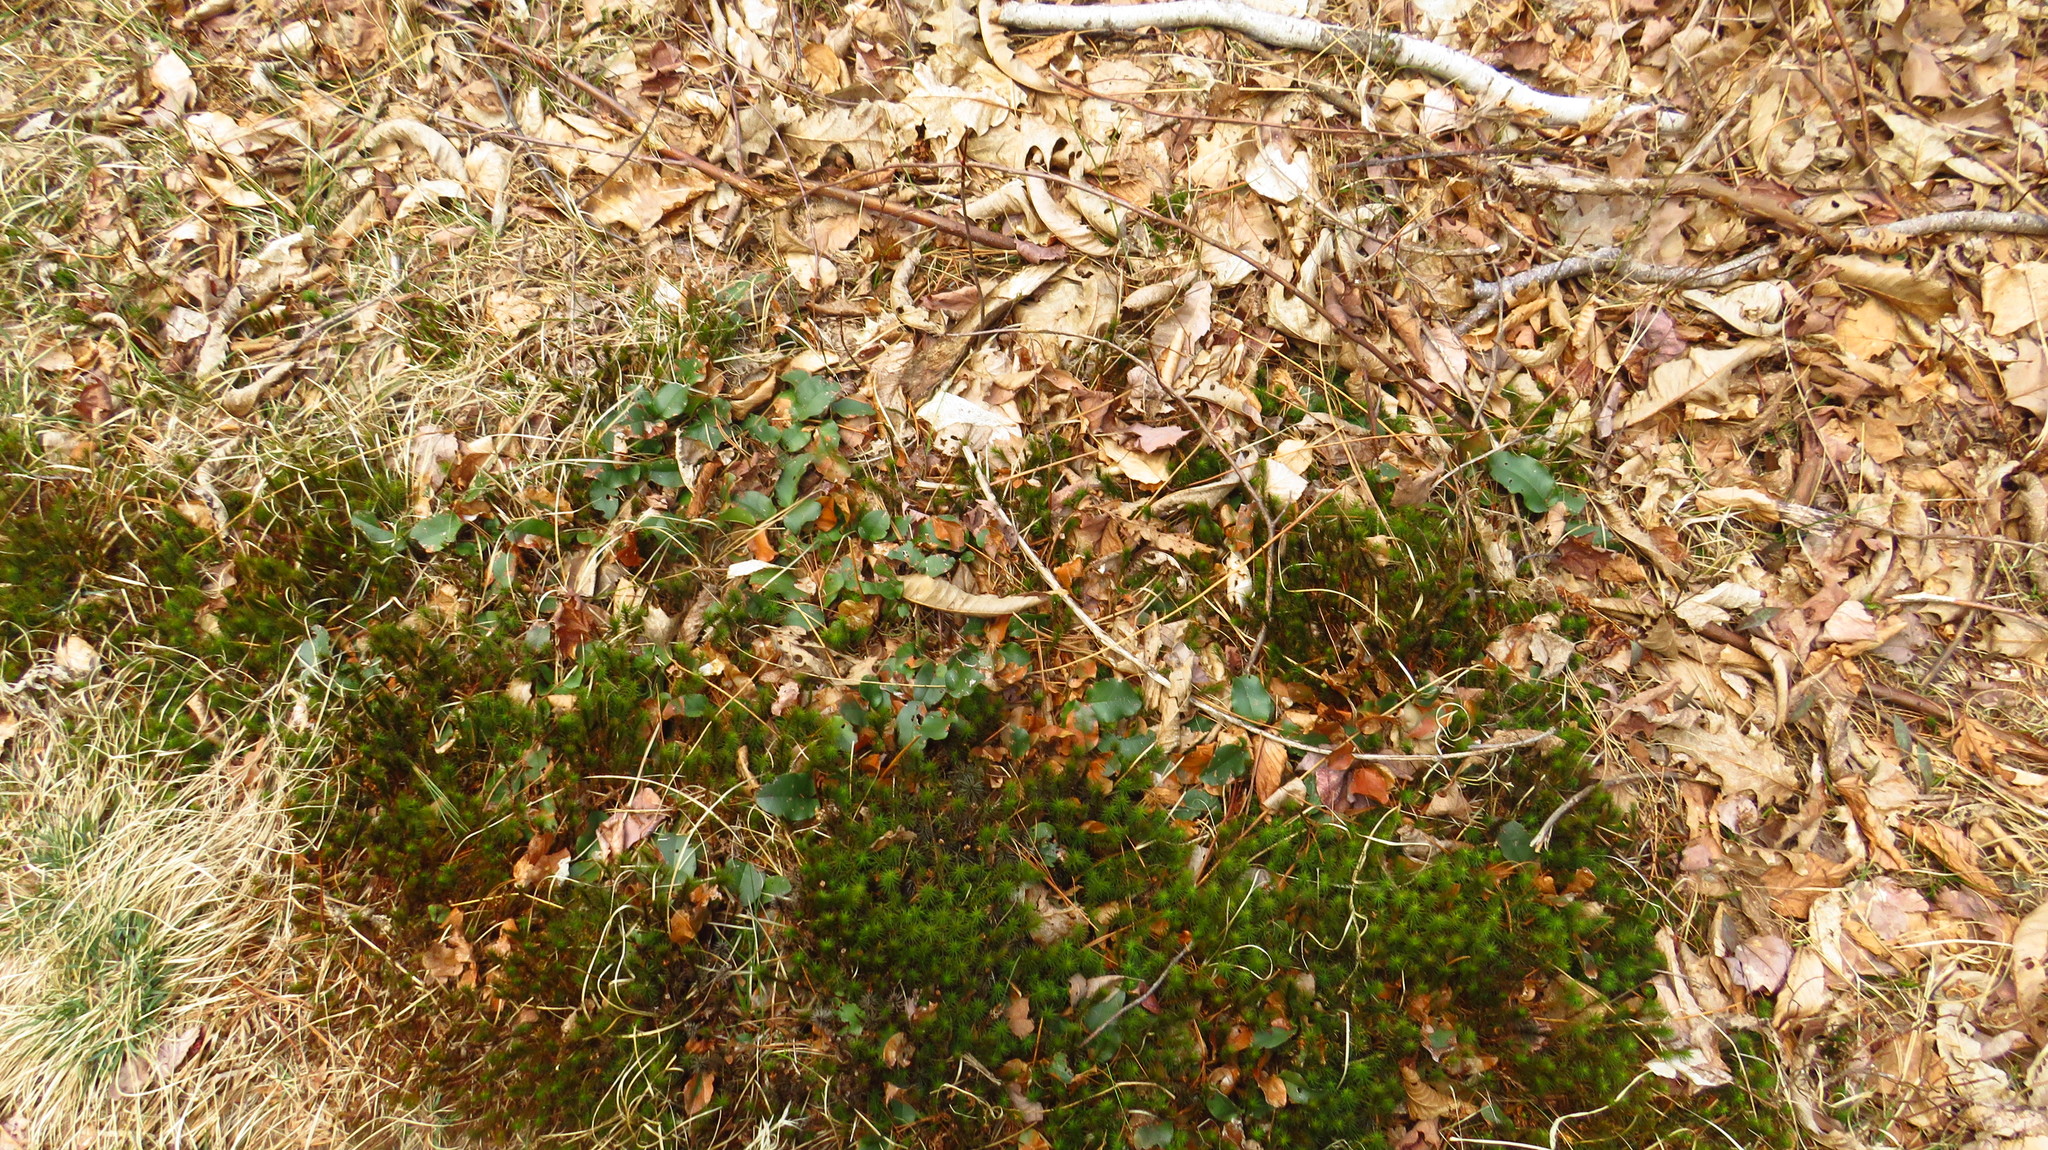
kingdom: Plantae
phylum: Tracheophyta
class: Magnoliopsida
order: Ericales
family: Ericaceae
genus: Epigaea
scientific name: Epigaea repens
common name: Gravelroot
